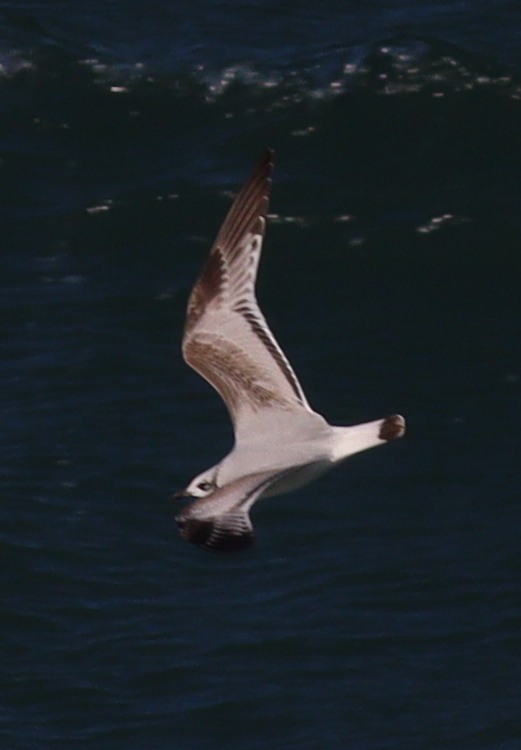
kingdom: Animalia
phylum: Chordata
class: Aves
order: Charadriiformes
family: Laridae
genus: Ichthyaetus
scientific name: Ichthyaetus melanocephalus
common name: Mediterranean gull
